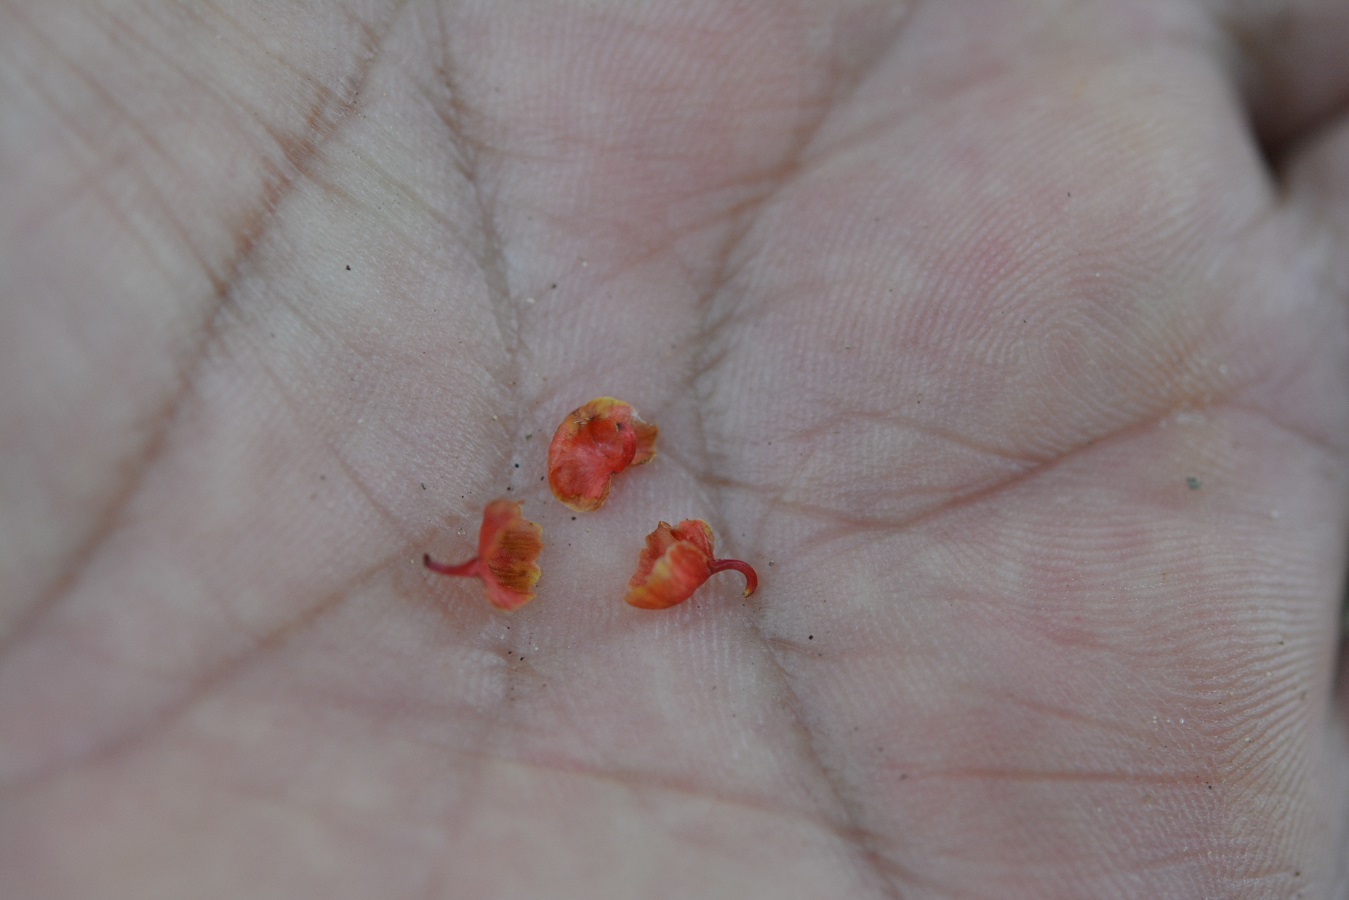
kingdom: Plantae
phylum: Tracheophyta
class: Liliopsida
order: Asparagales
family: Orchidaceae
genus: Specklinia
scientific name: Specklinia tribuloides
